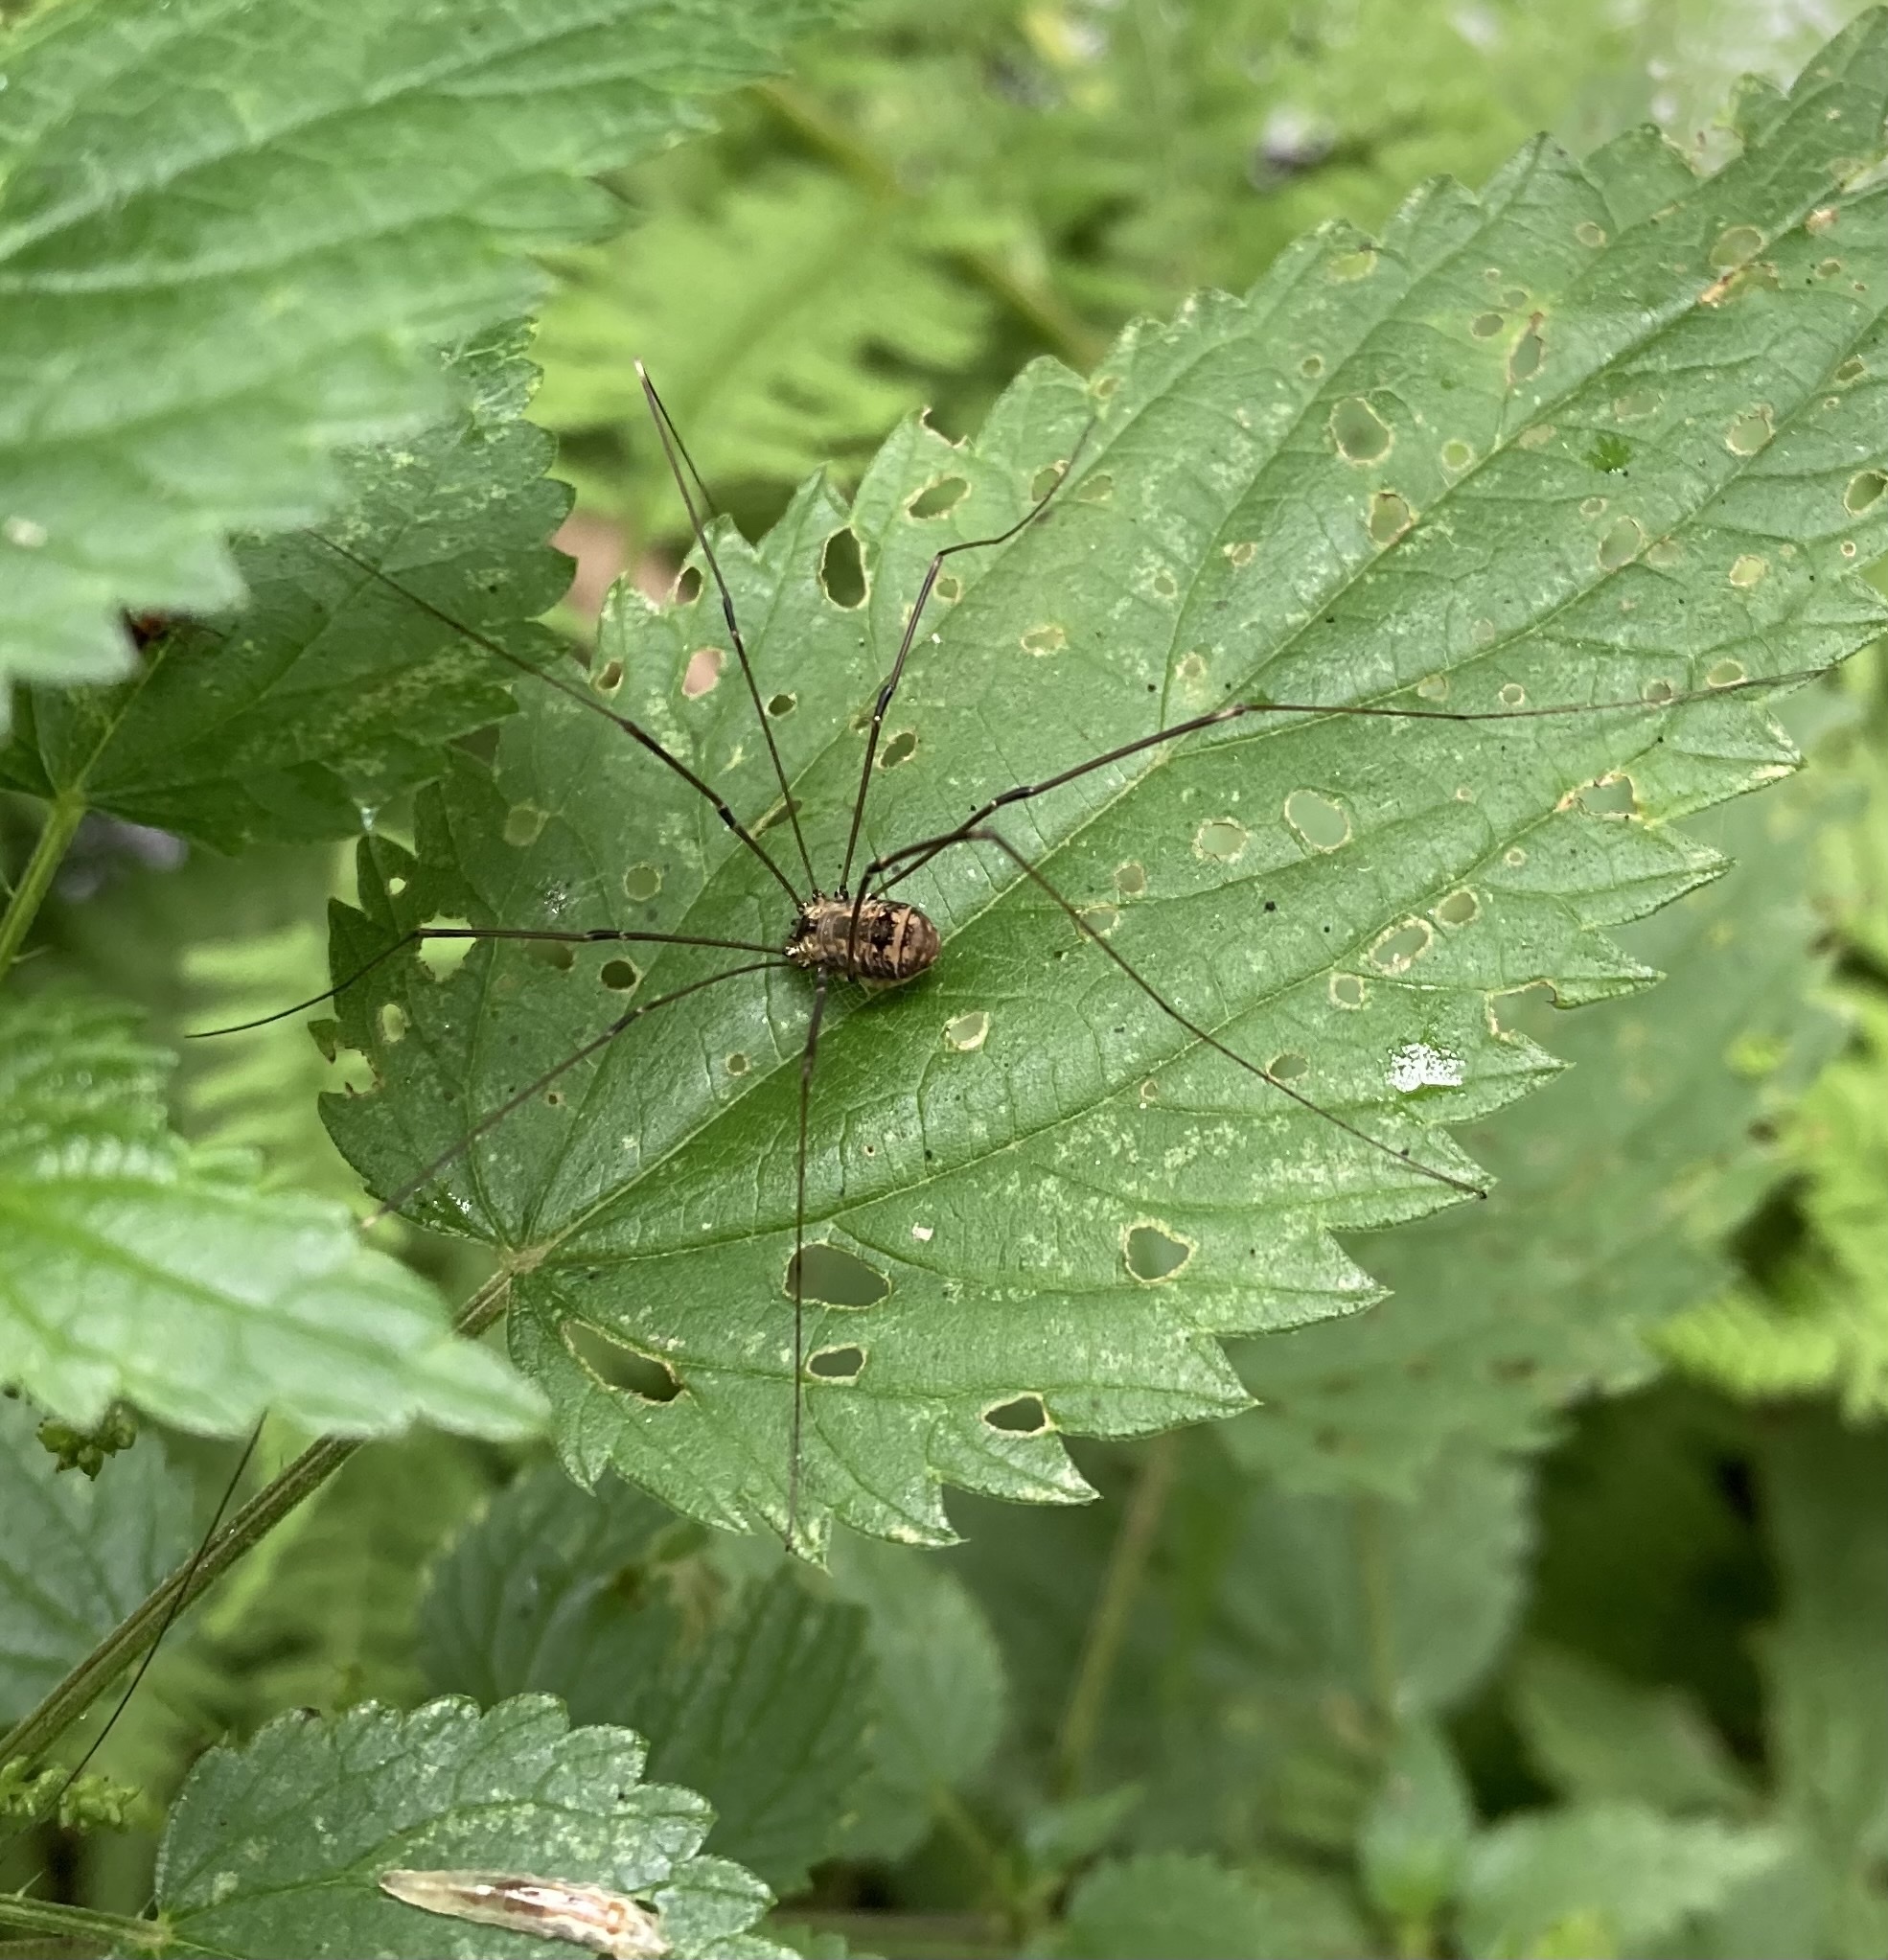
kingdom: Animalia
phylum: Arthropoda
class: Arachnida
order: Opiliones
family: Sclerosomatidae
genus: Leiobunum
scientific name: Leiobunum rotundum
